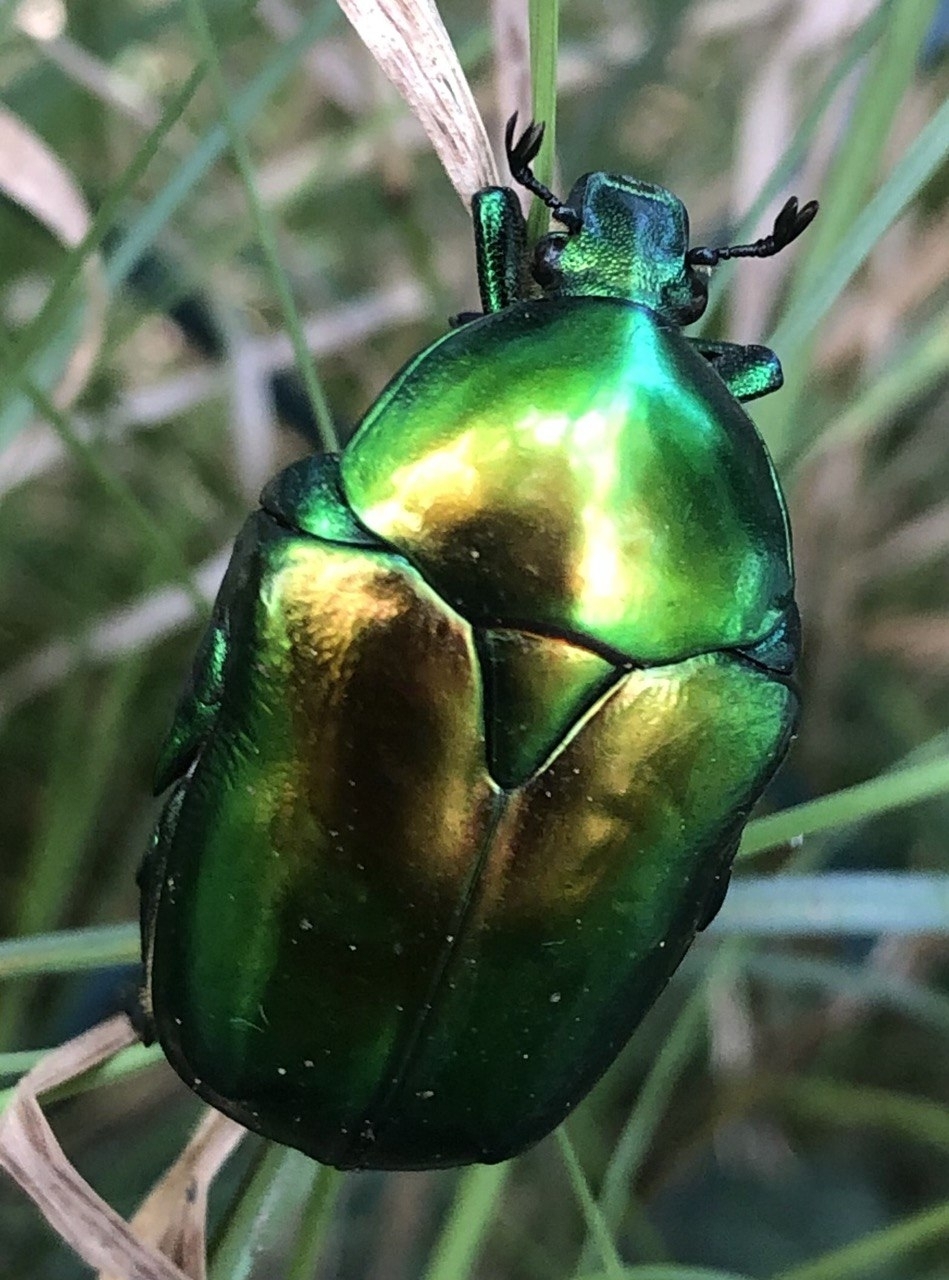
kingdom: Animalia
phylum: Arthropoda
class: Insecta
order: Coleoptera
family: Scarabaeidae
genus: Protaetia
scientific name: Protaetia speciosissima
